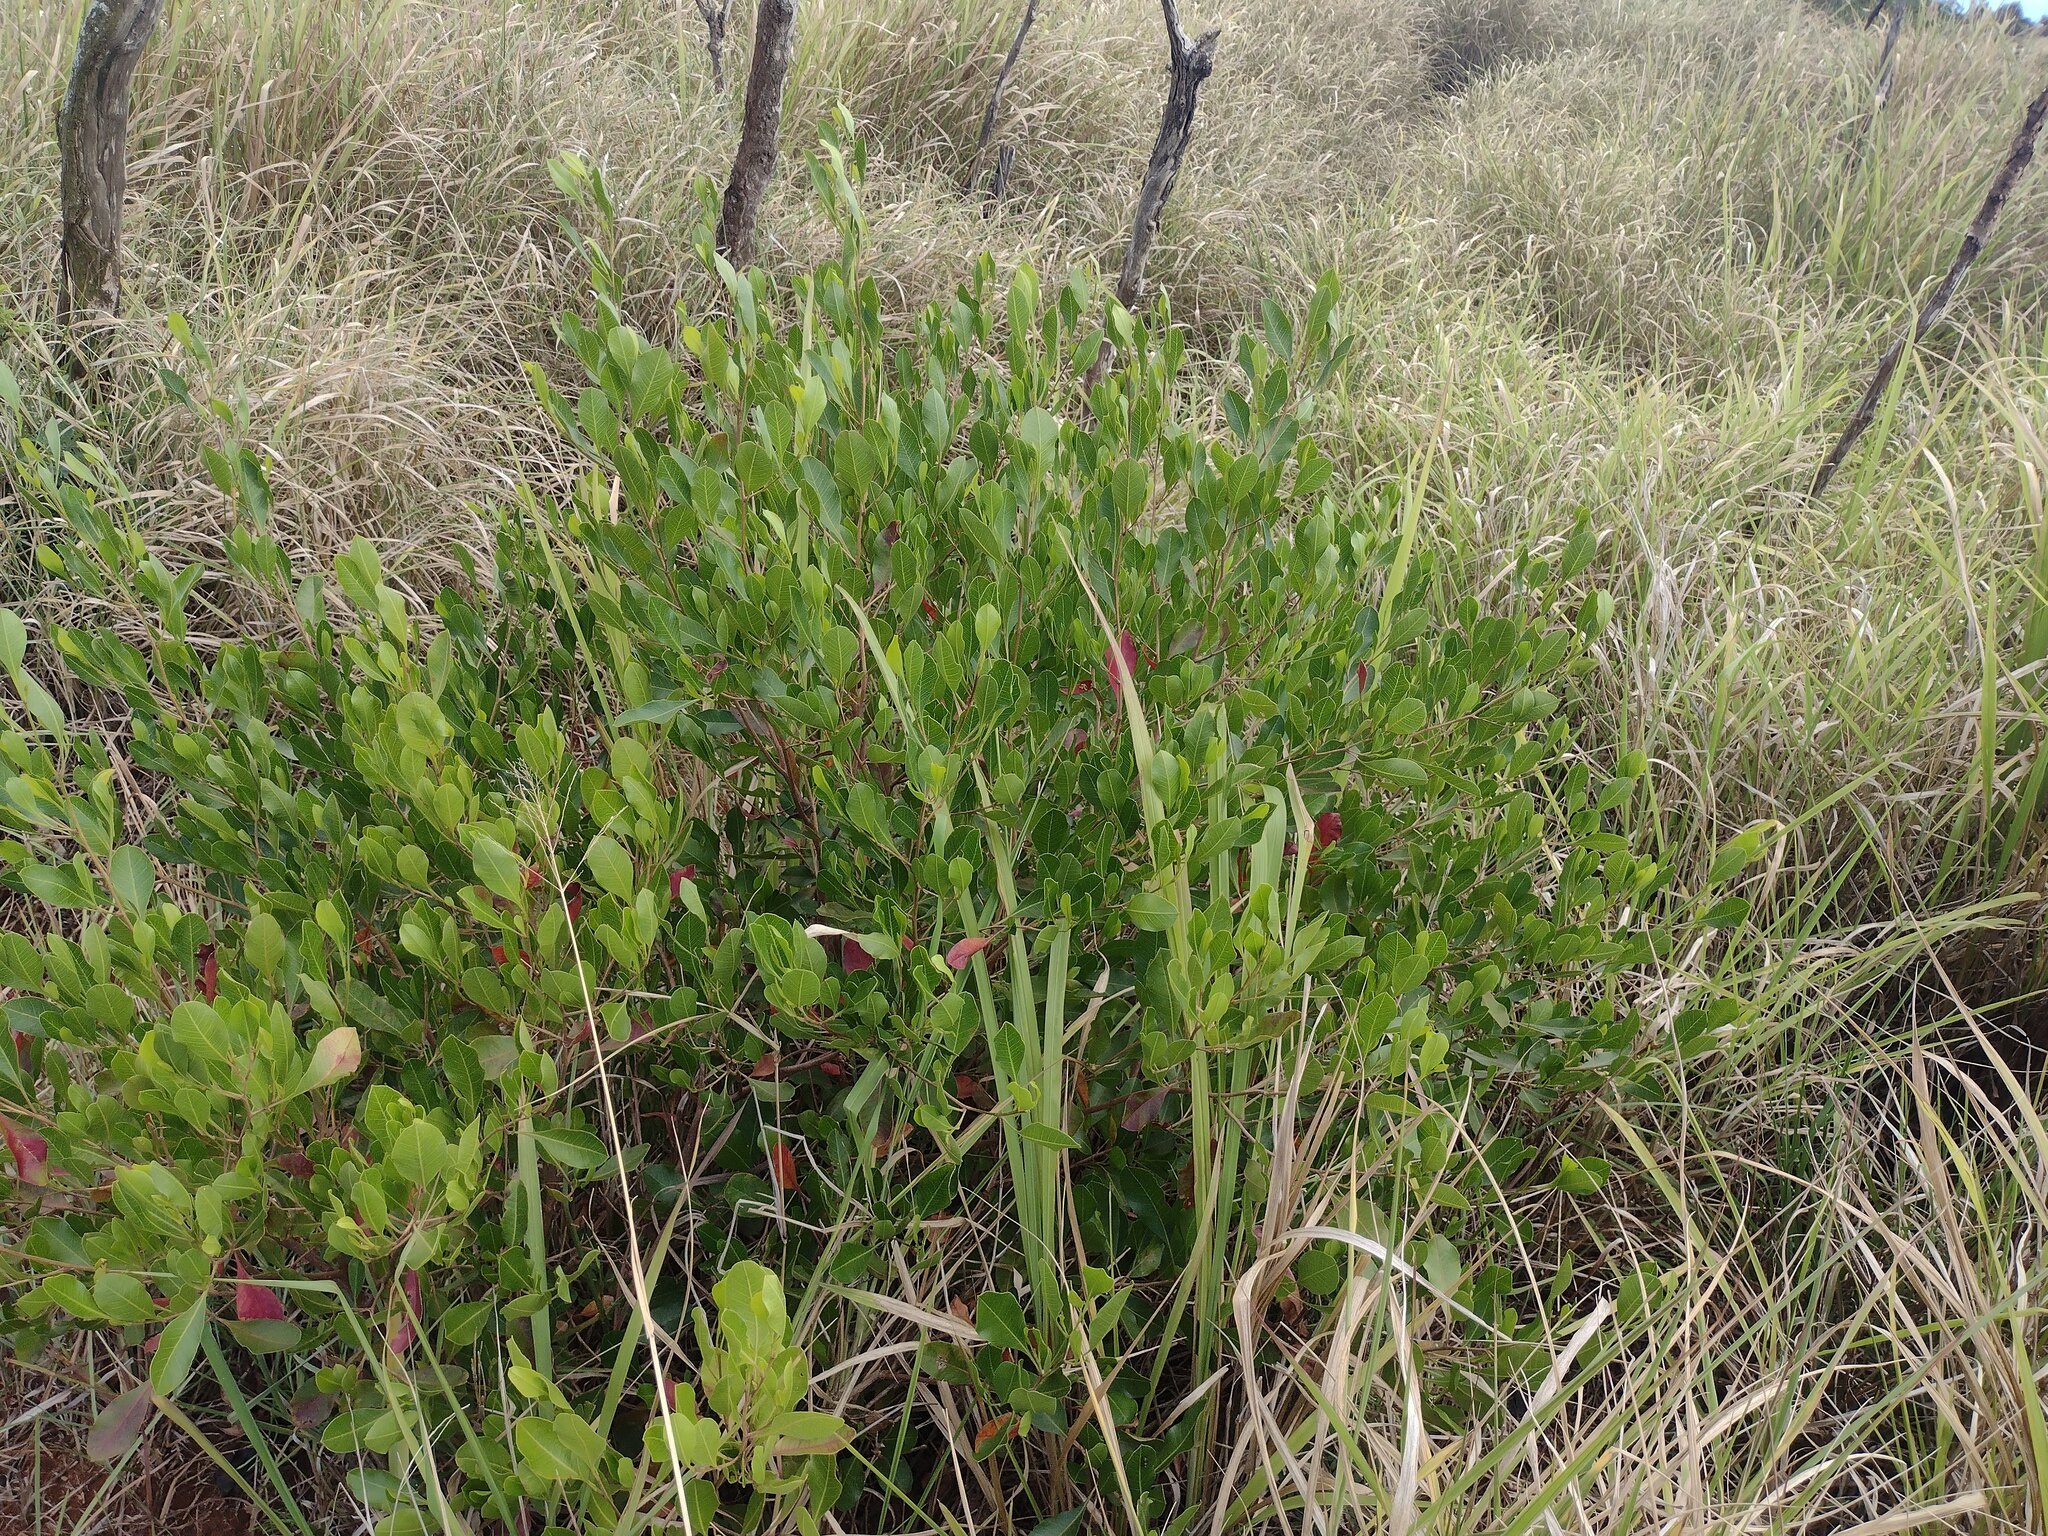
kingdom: Plantae
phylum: Tracheophyta
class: Magnoliopsida
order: Sapindales
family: Sapindaceae
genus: Dodonaea
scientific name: Dodonaea viscosa
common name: Hopbush
